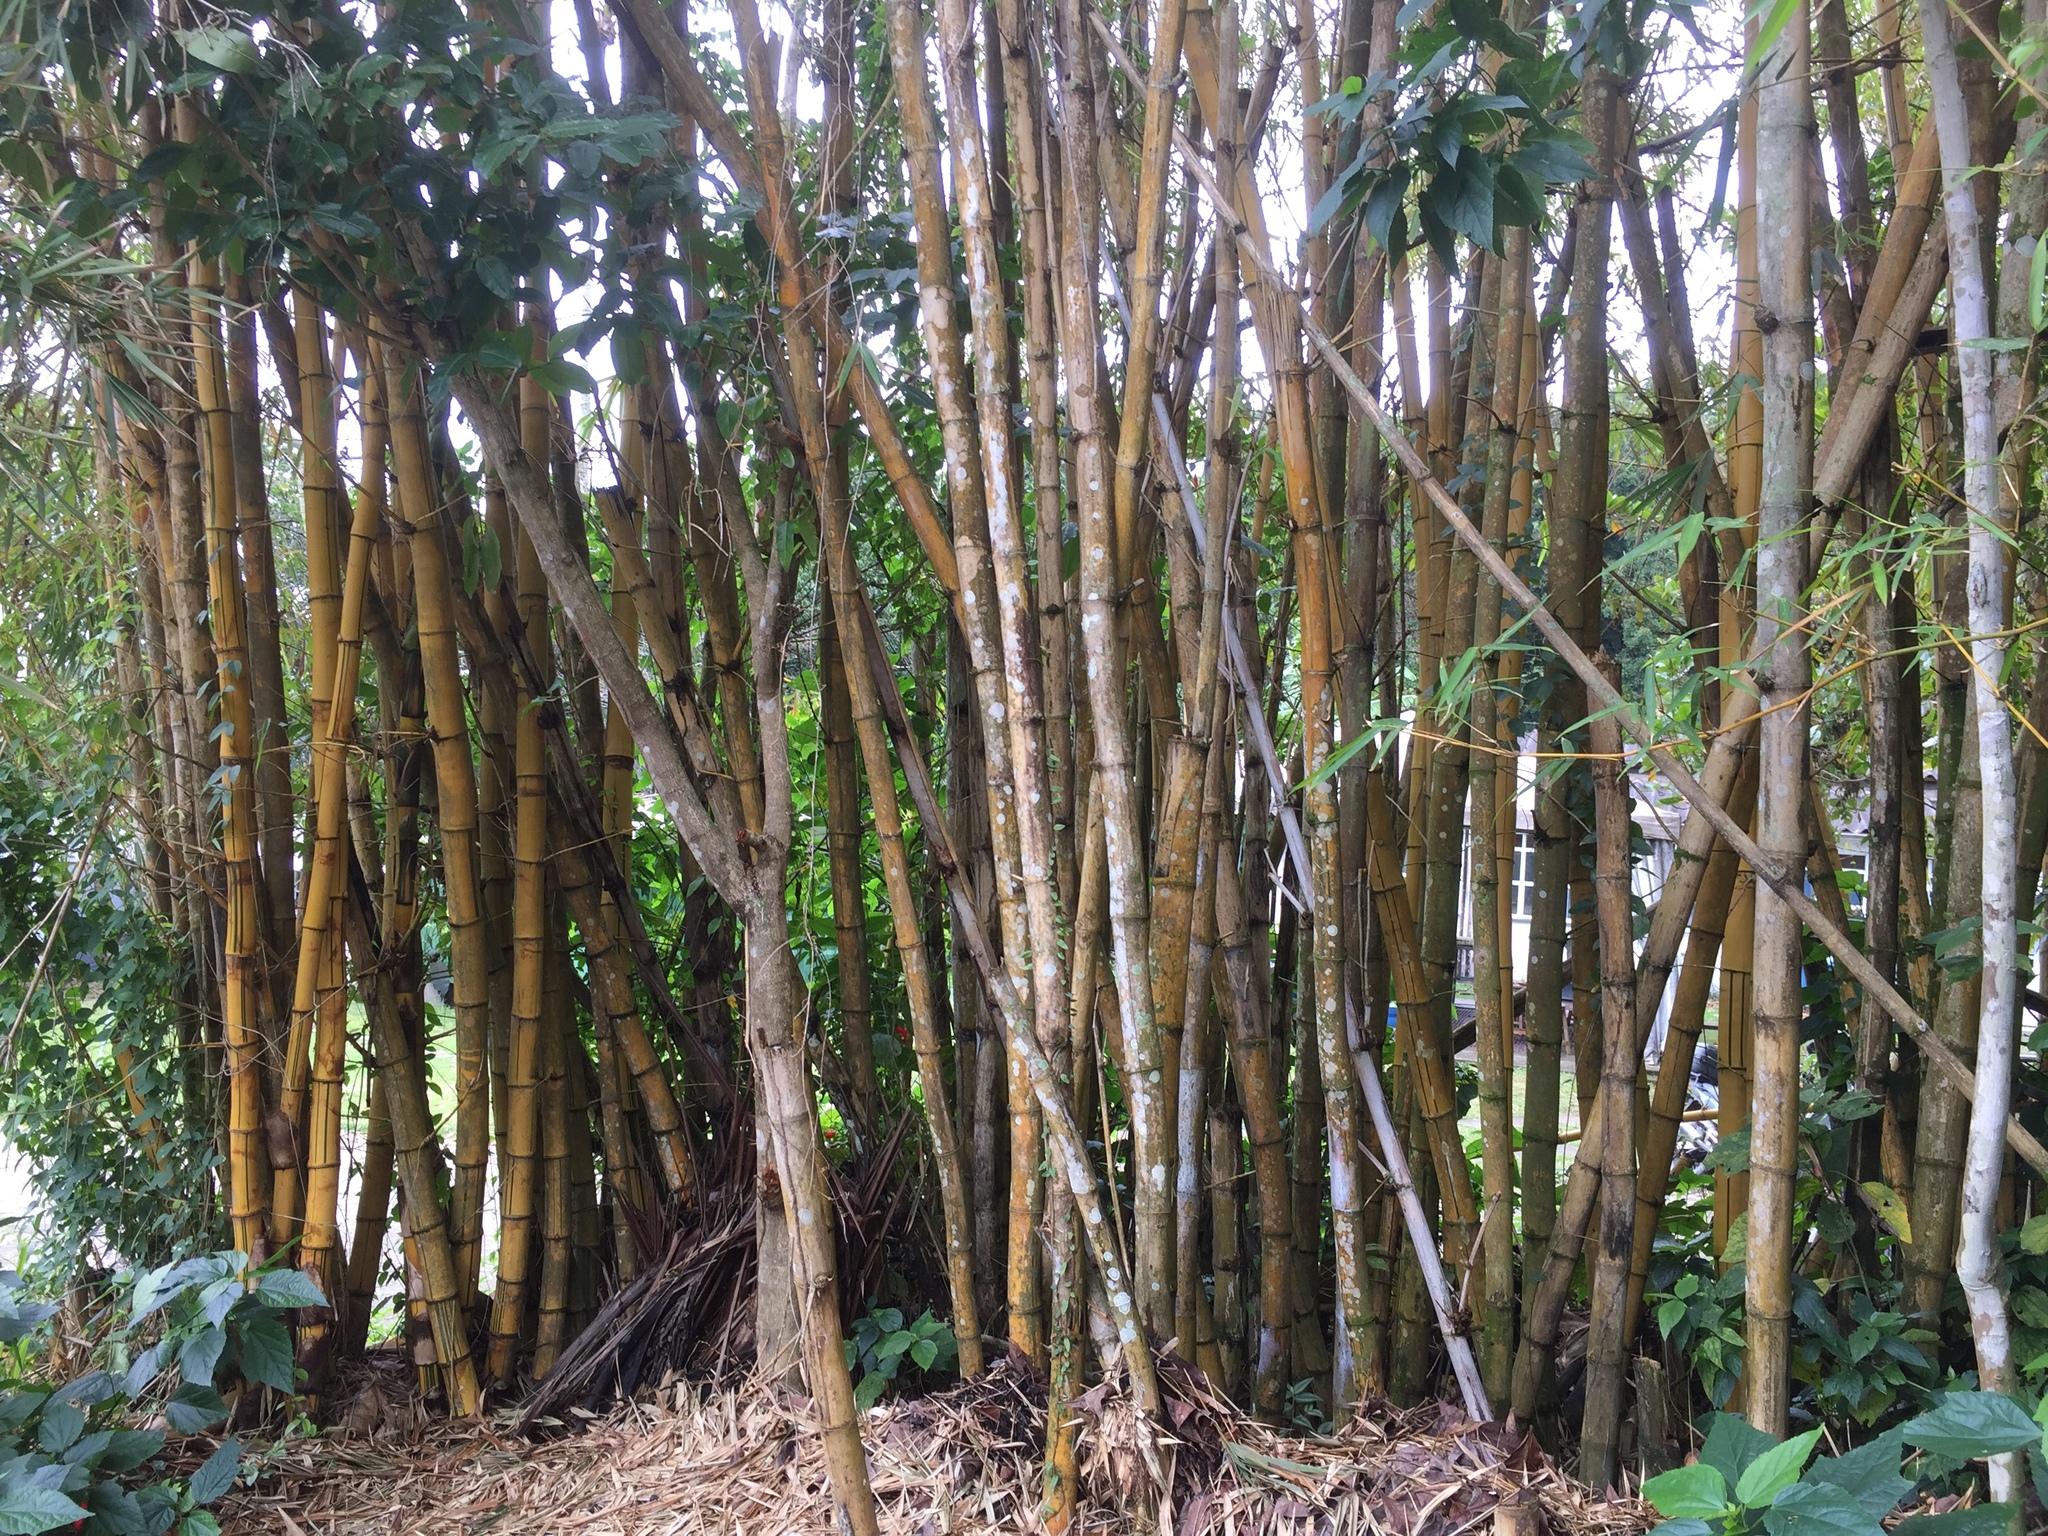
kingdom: Plantae
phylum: Tracheophyta
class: Liliopsida
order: Poales
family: Poaceae
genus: Bambusa
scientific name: Bambusa vulgaris
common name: Common bamboo
